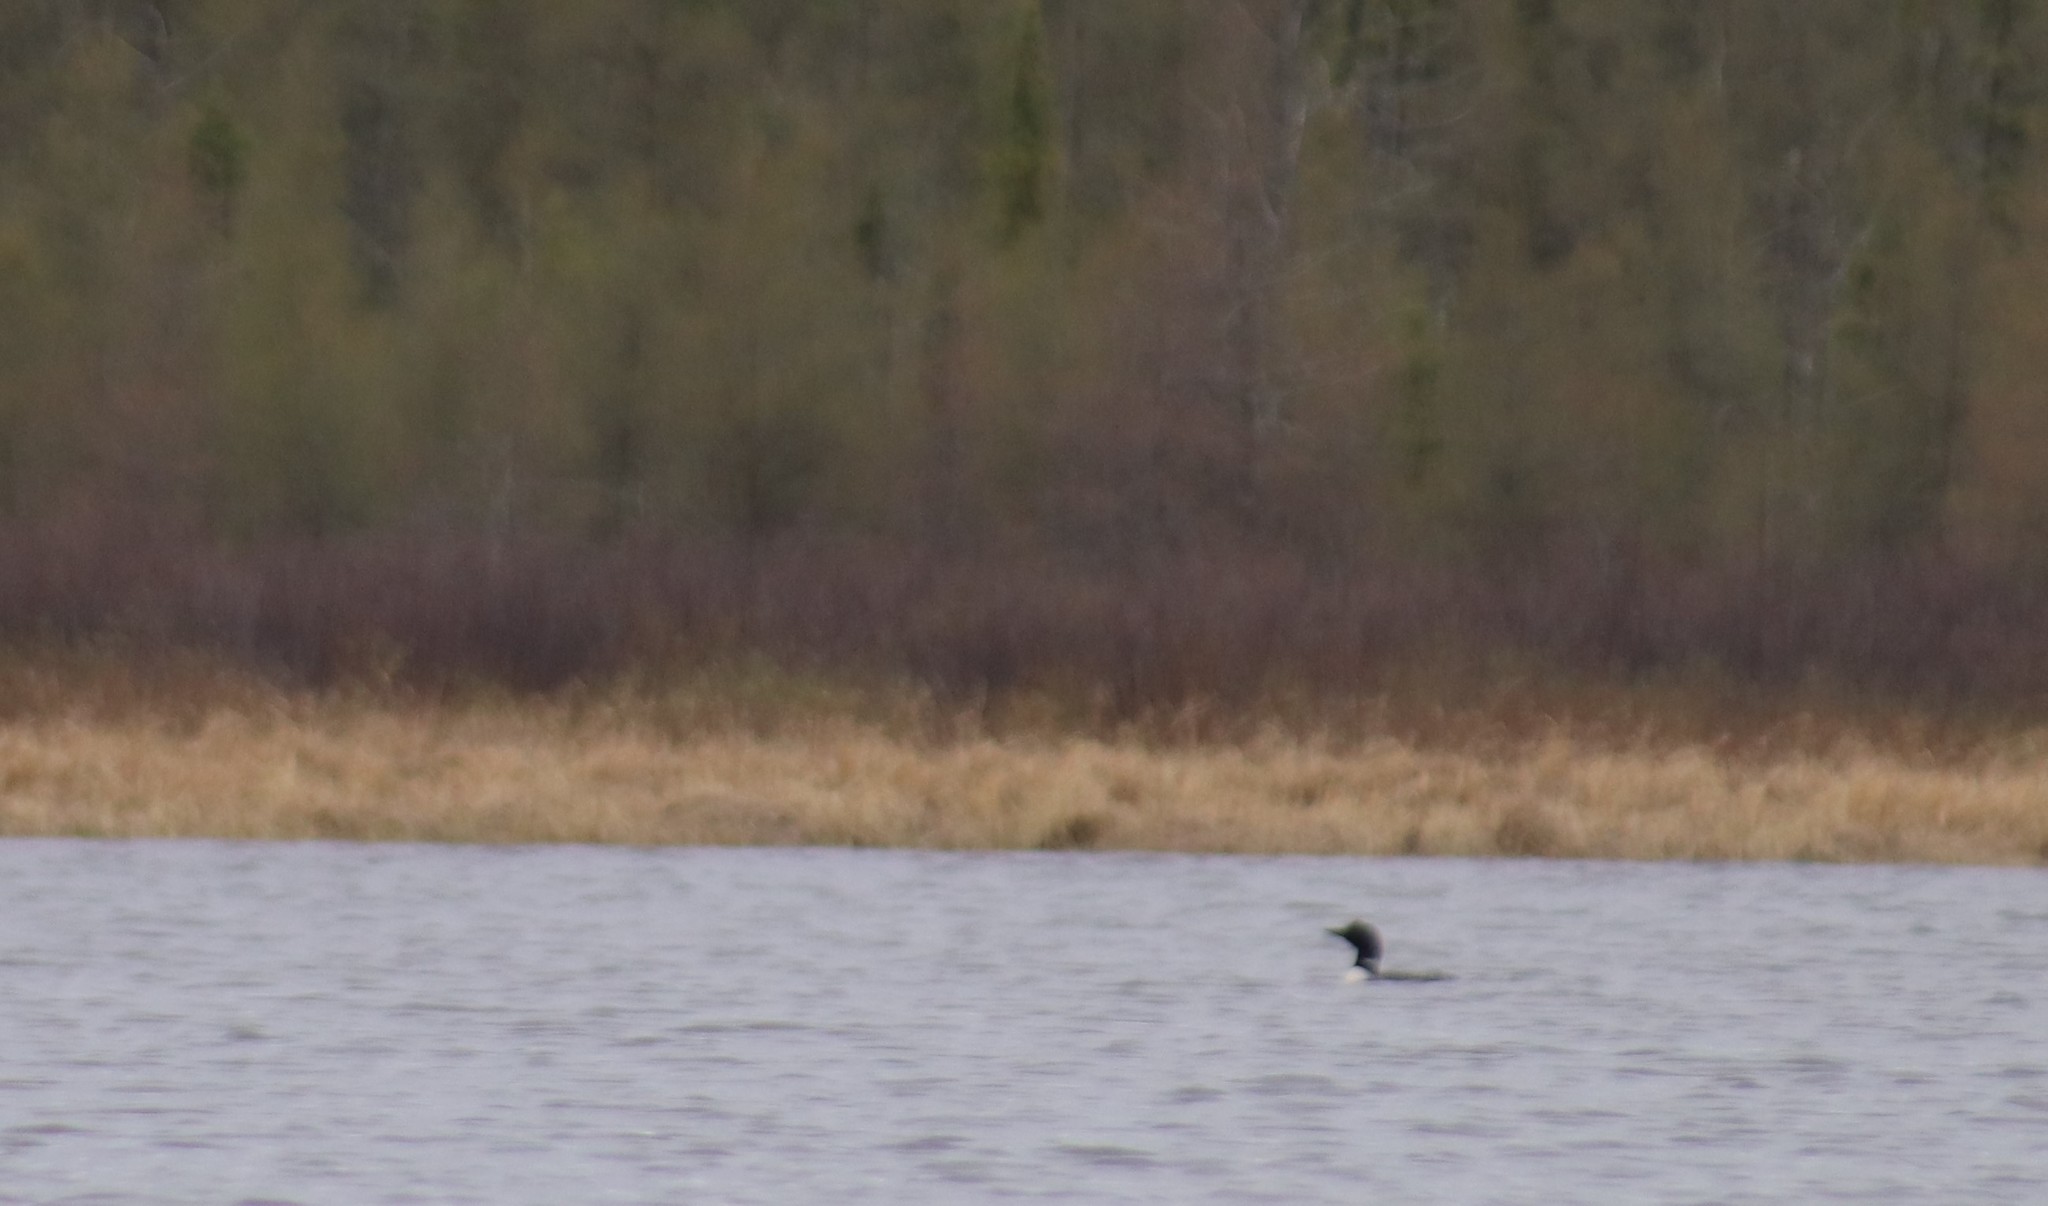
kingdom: Animalia
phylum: Chordata
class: Aves
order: Gaviiformes
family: Gaviidae
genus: Gavia
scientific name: Gavia immer
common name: Common loon
